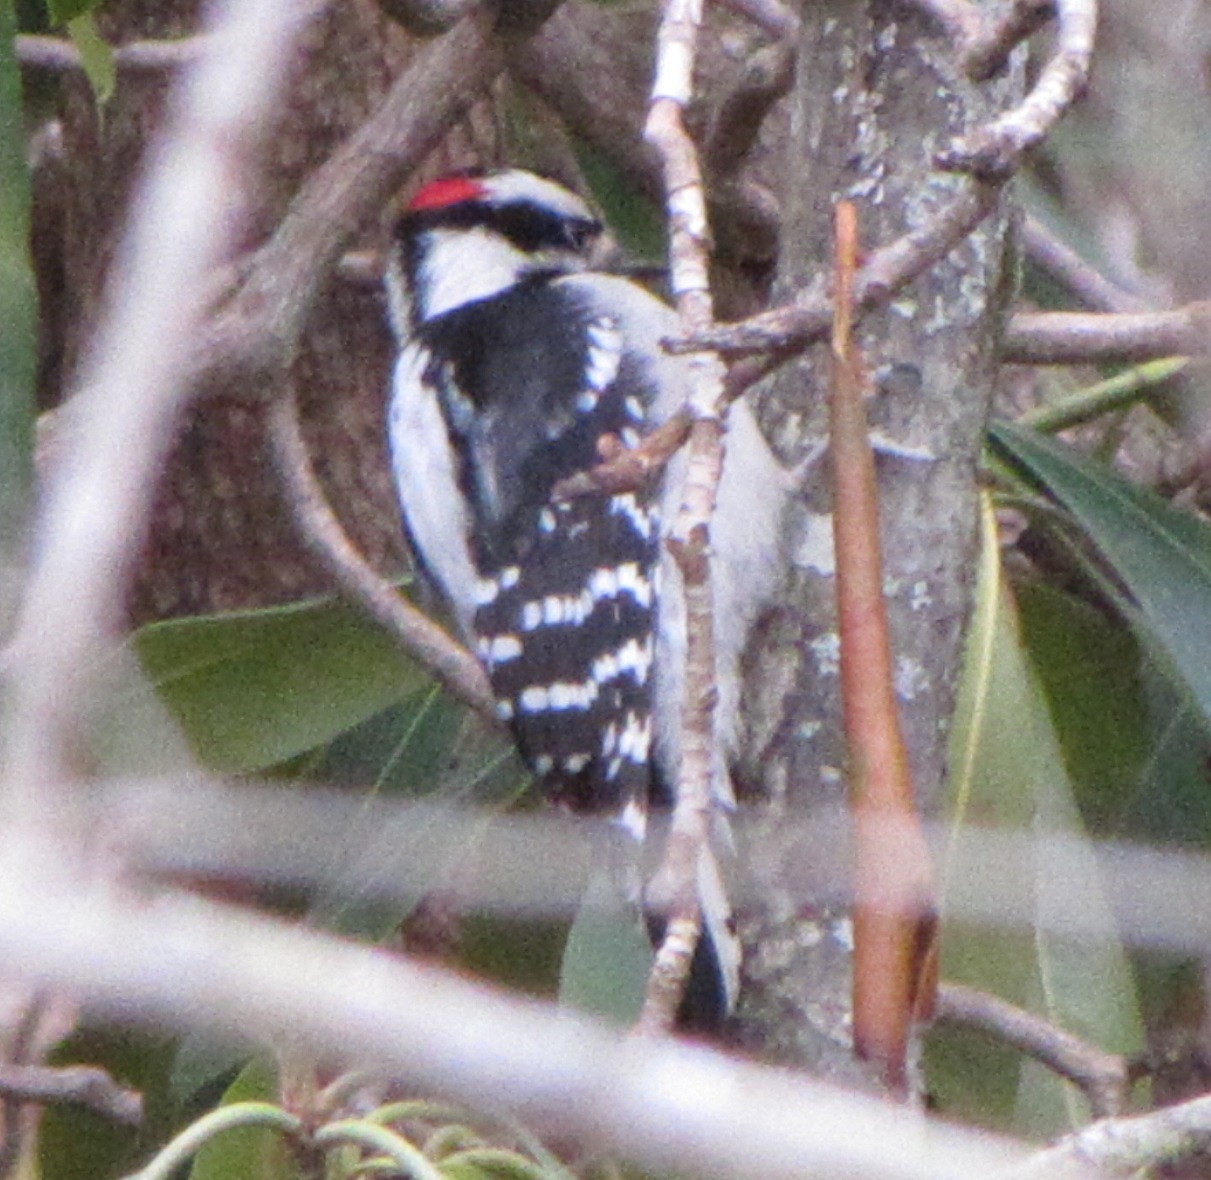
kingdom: Animalia
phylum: Chordata
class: Aves
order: Piciformes
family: Picidae
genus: Dryobates
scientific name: Dryobates pubescens
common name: Downy woodpecker
